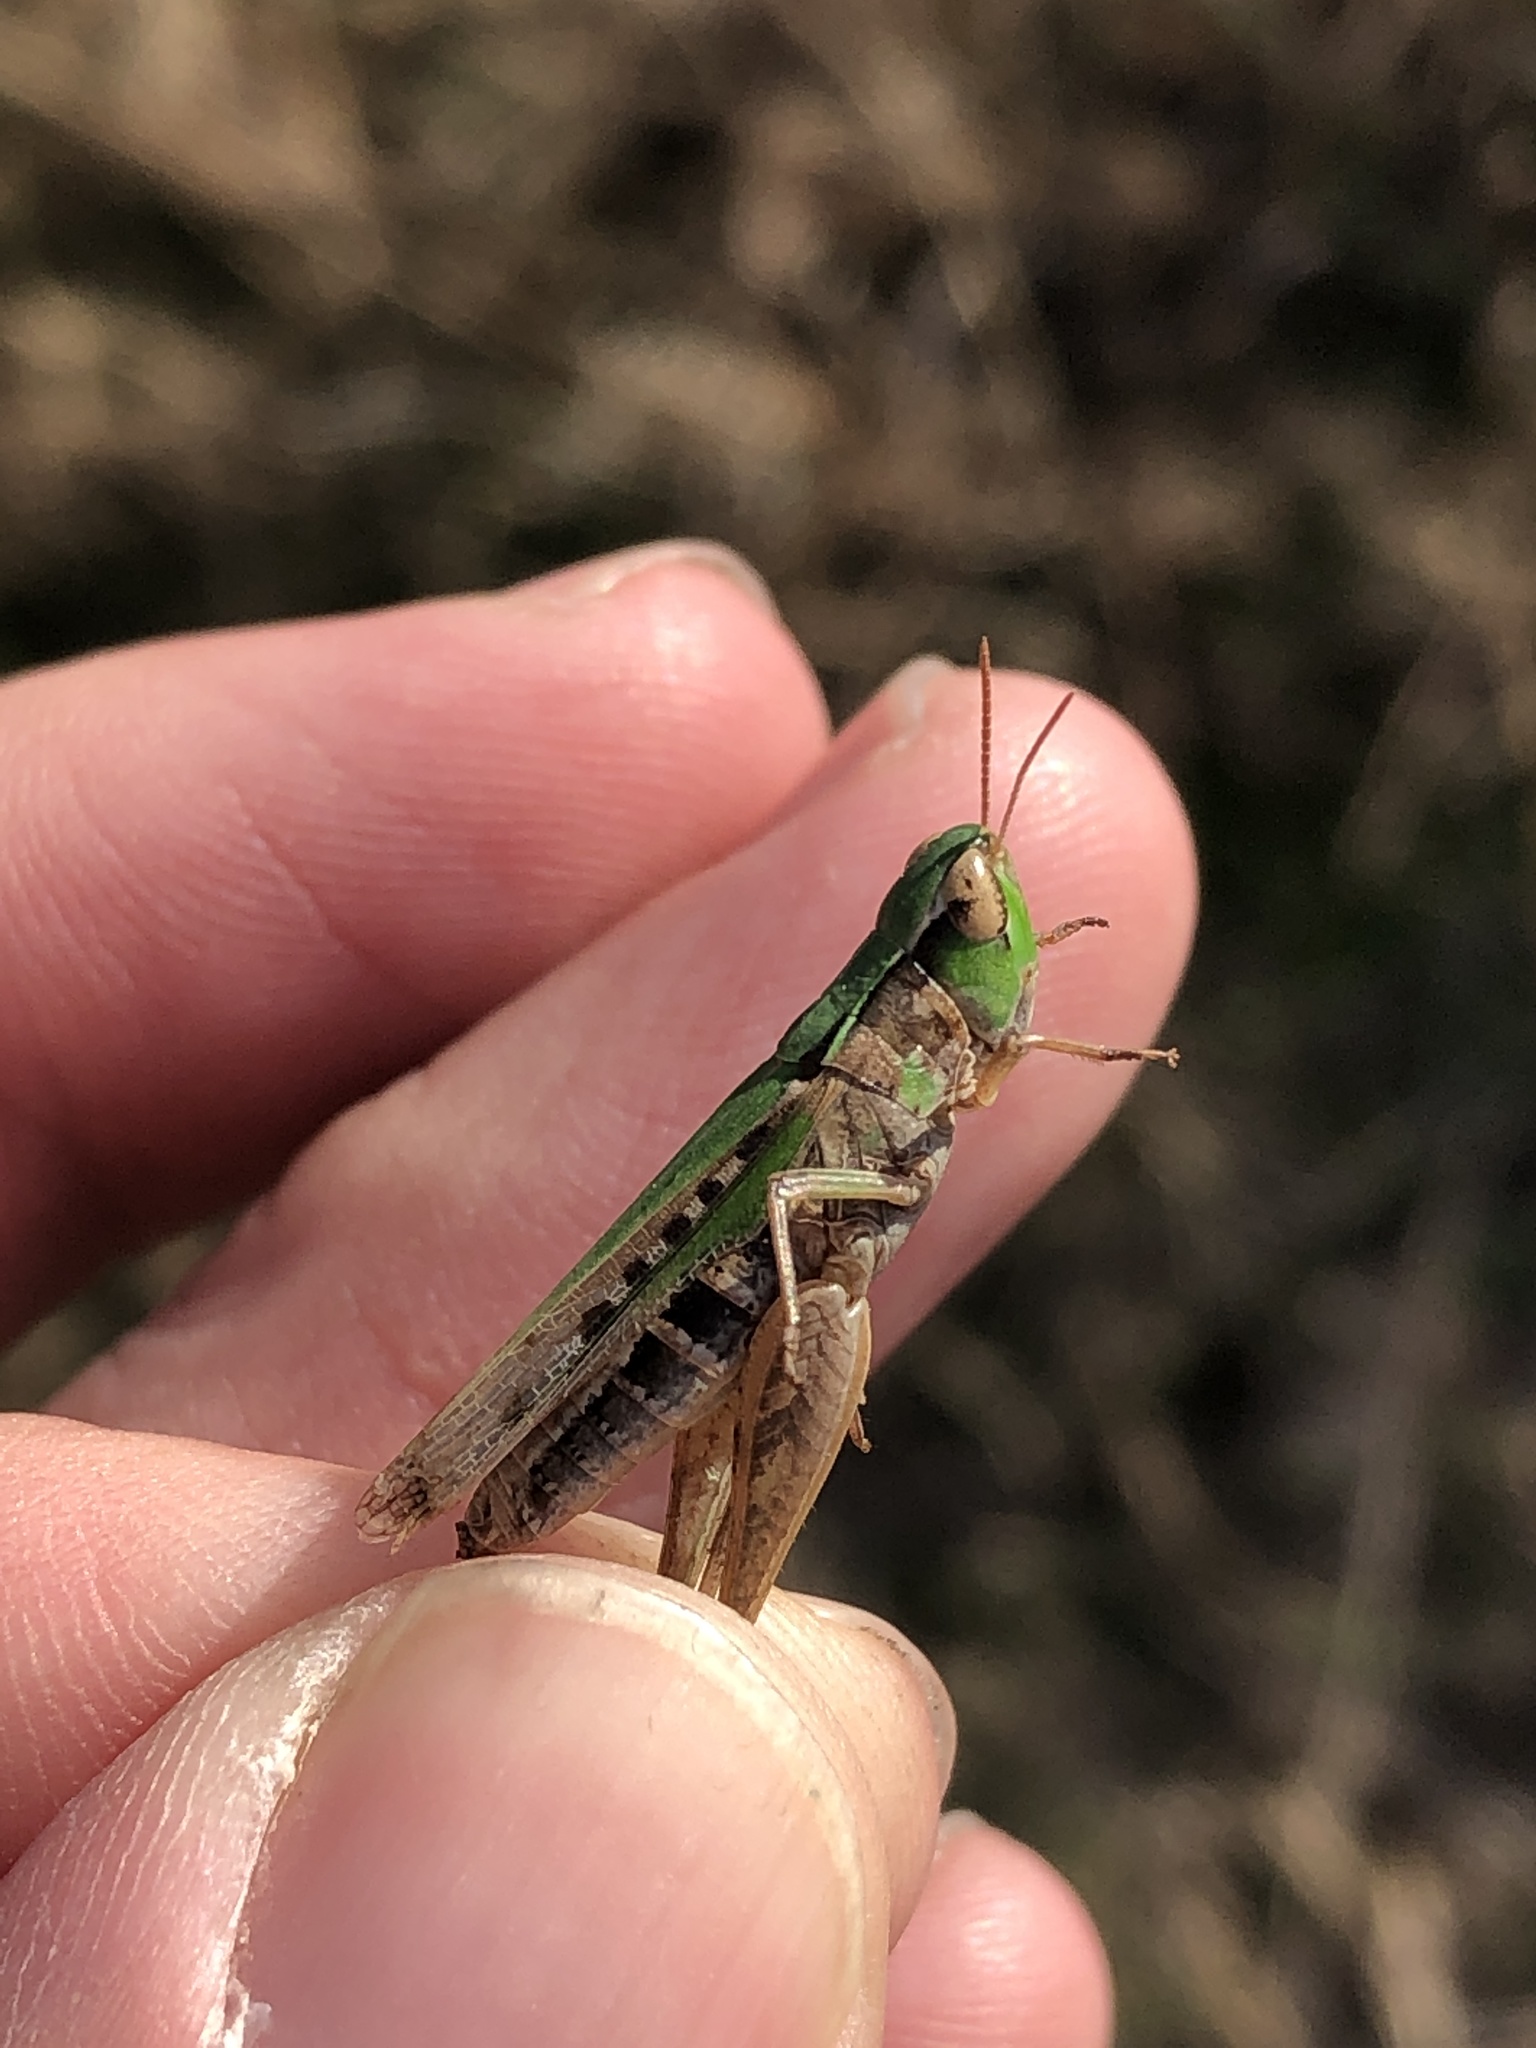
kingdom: Animalia
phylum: Arthropoda
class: Insecta
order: Orthoptera
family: Acrididae
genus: Orphulella
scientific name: Orphulella speciosa
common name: Pasture grasshopper
